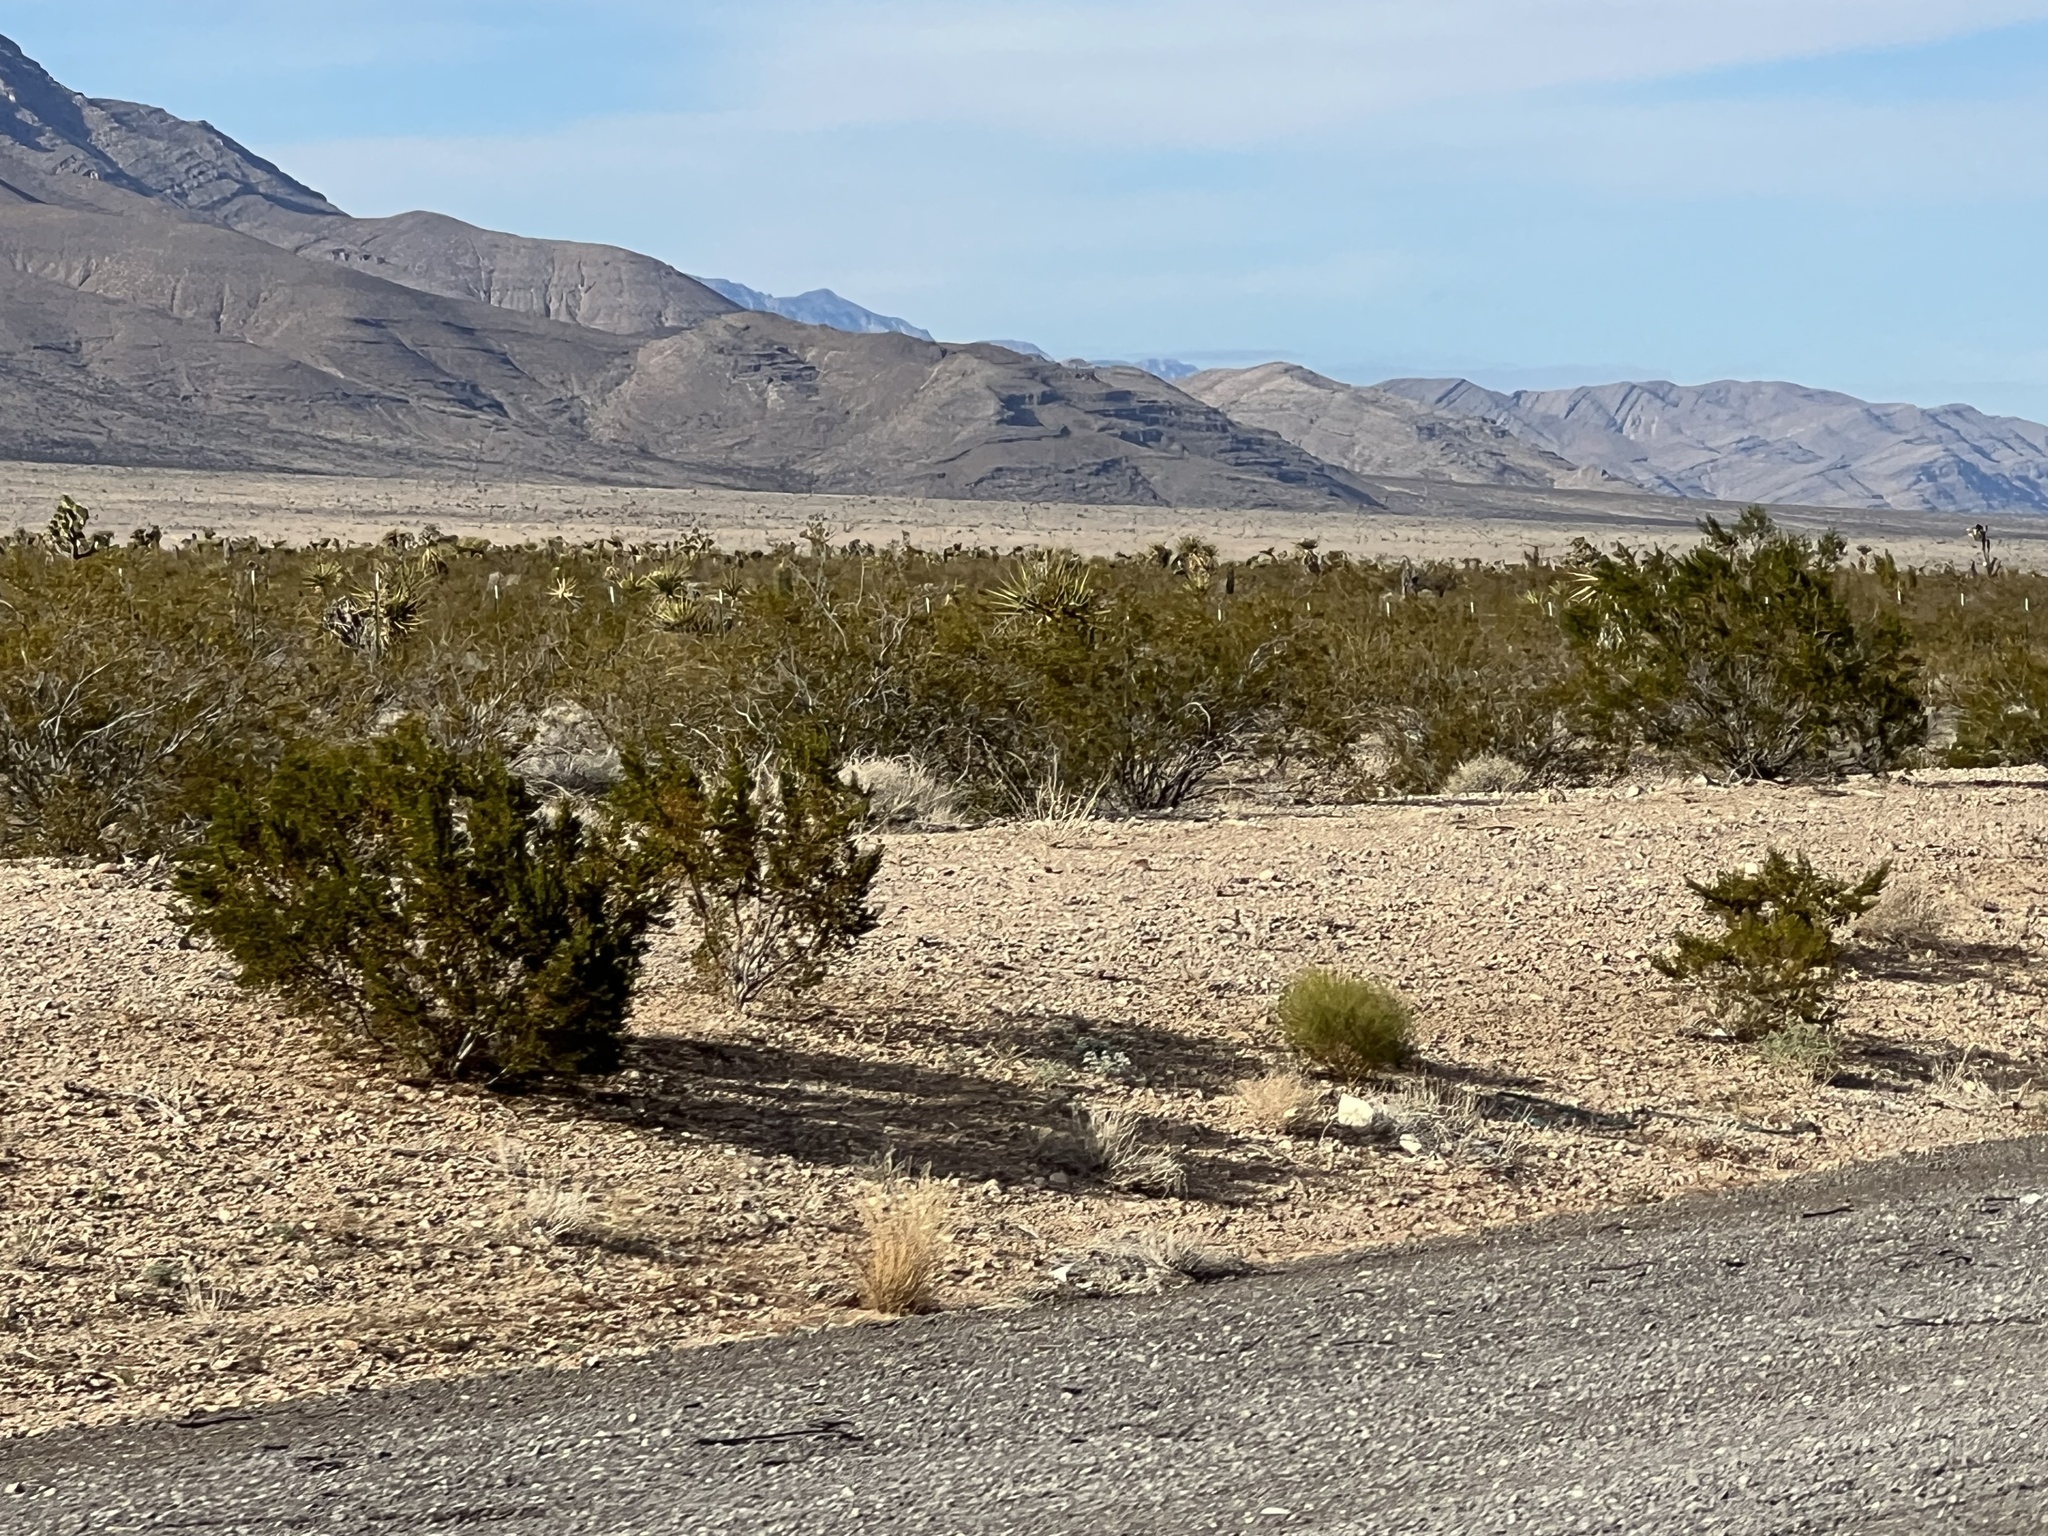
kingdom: Plantae
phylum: Tracheophyta
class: Magnoliopsida
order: Zygophyllales
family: Zygophyllaceae
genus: Larrea
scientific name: Larrea tridentata
